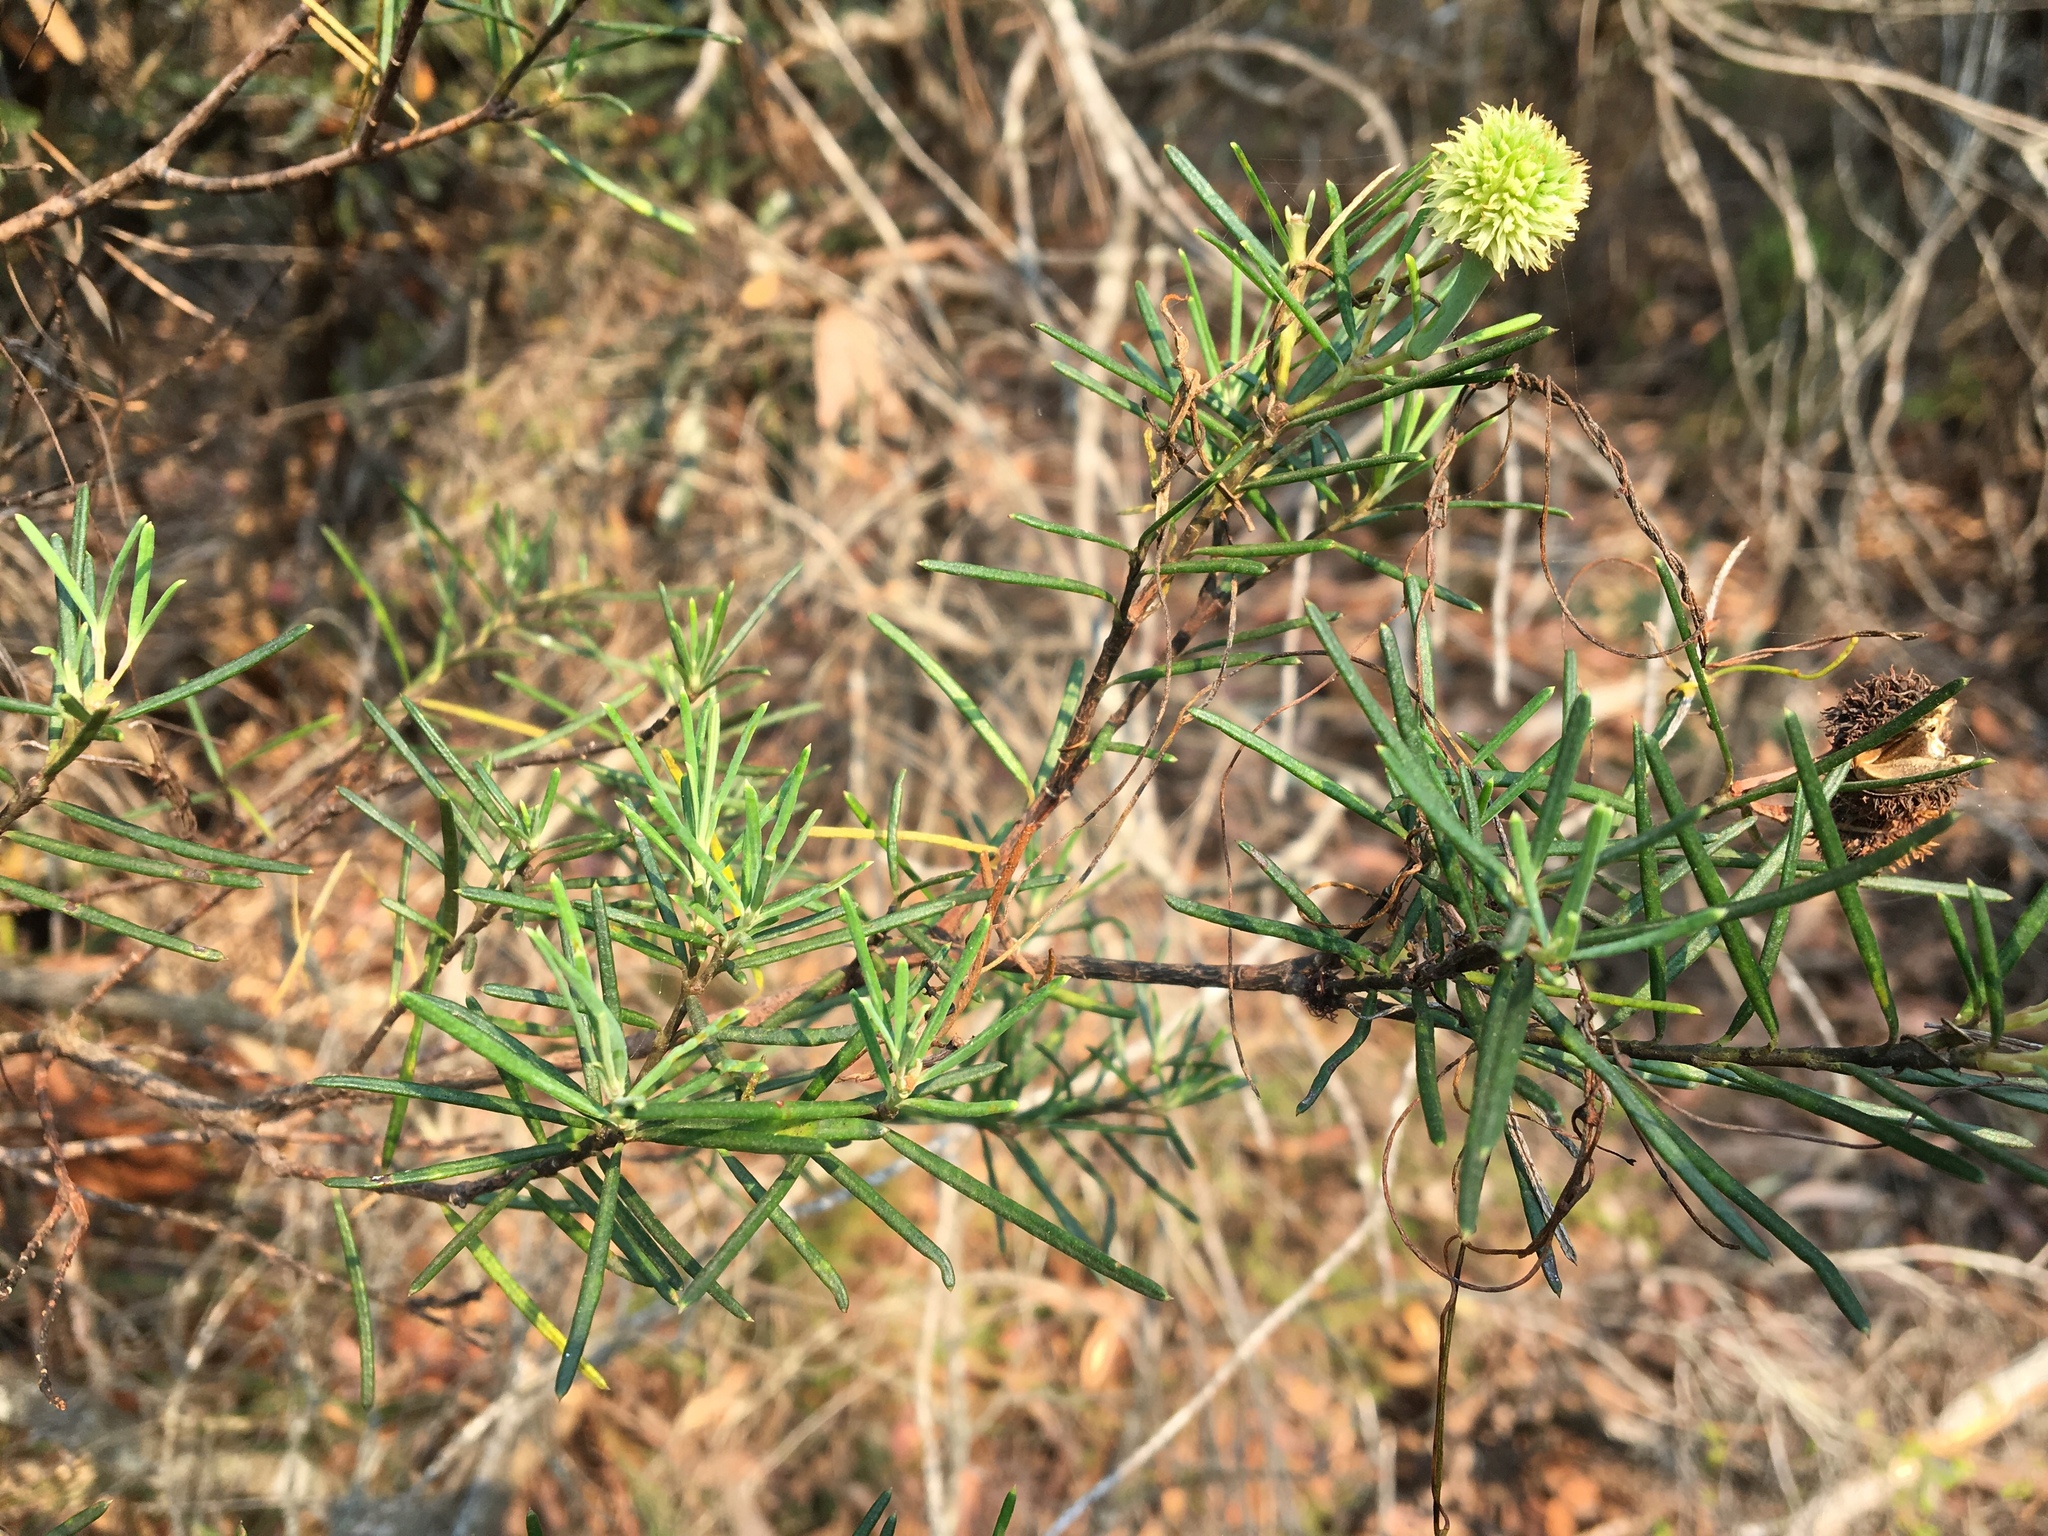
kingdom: Plantae
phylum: Tracheophyta
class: Magnoliopsida
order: Malpighiales
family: Euphorbiaceae
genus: Ricinocarpos
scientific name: Ricinocarpos pinifolius
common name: Weddingbush
